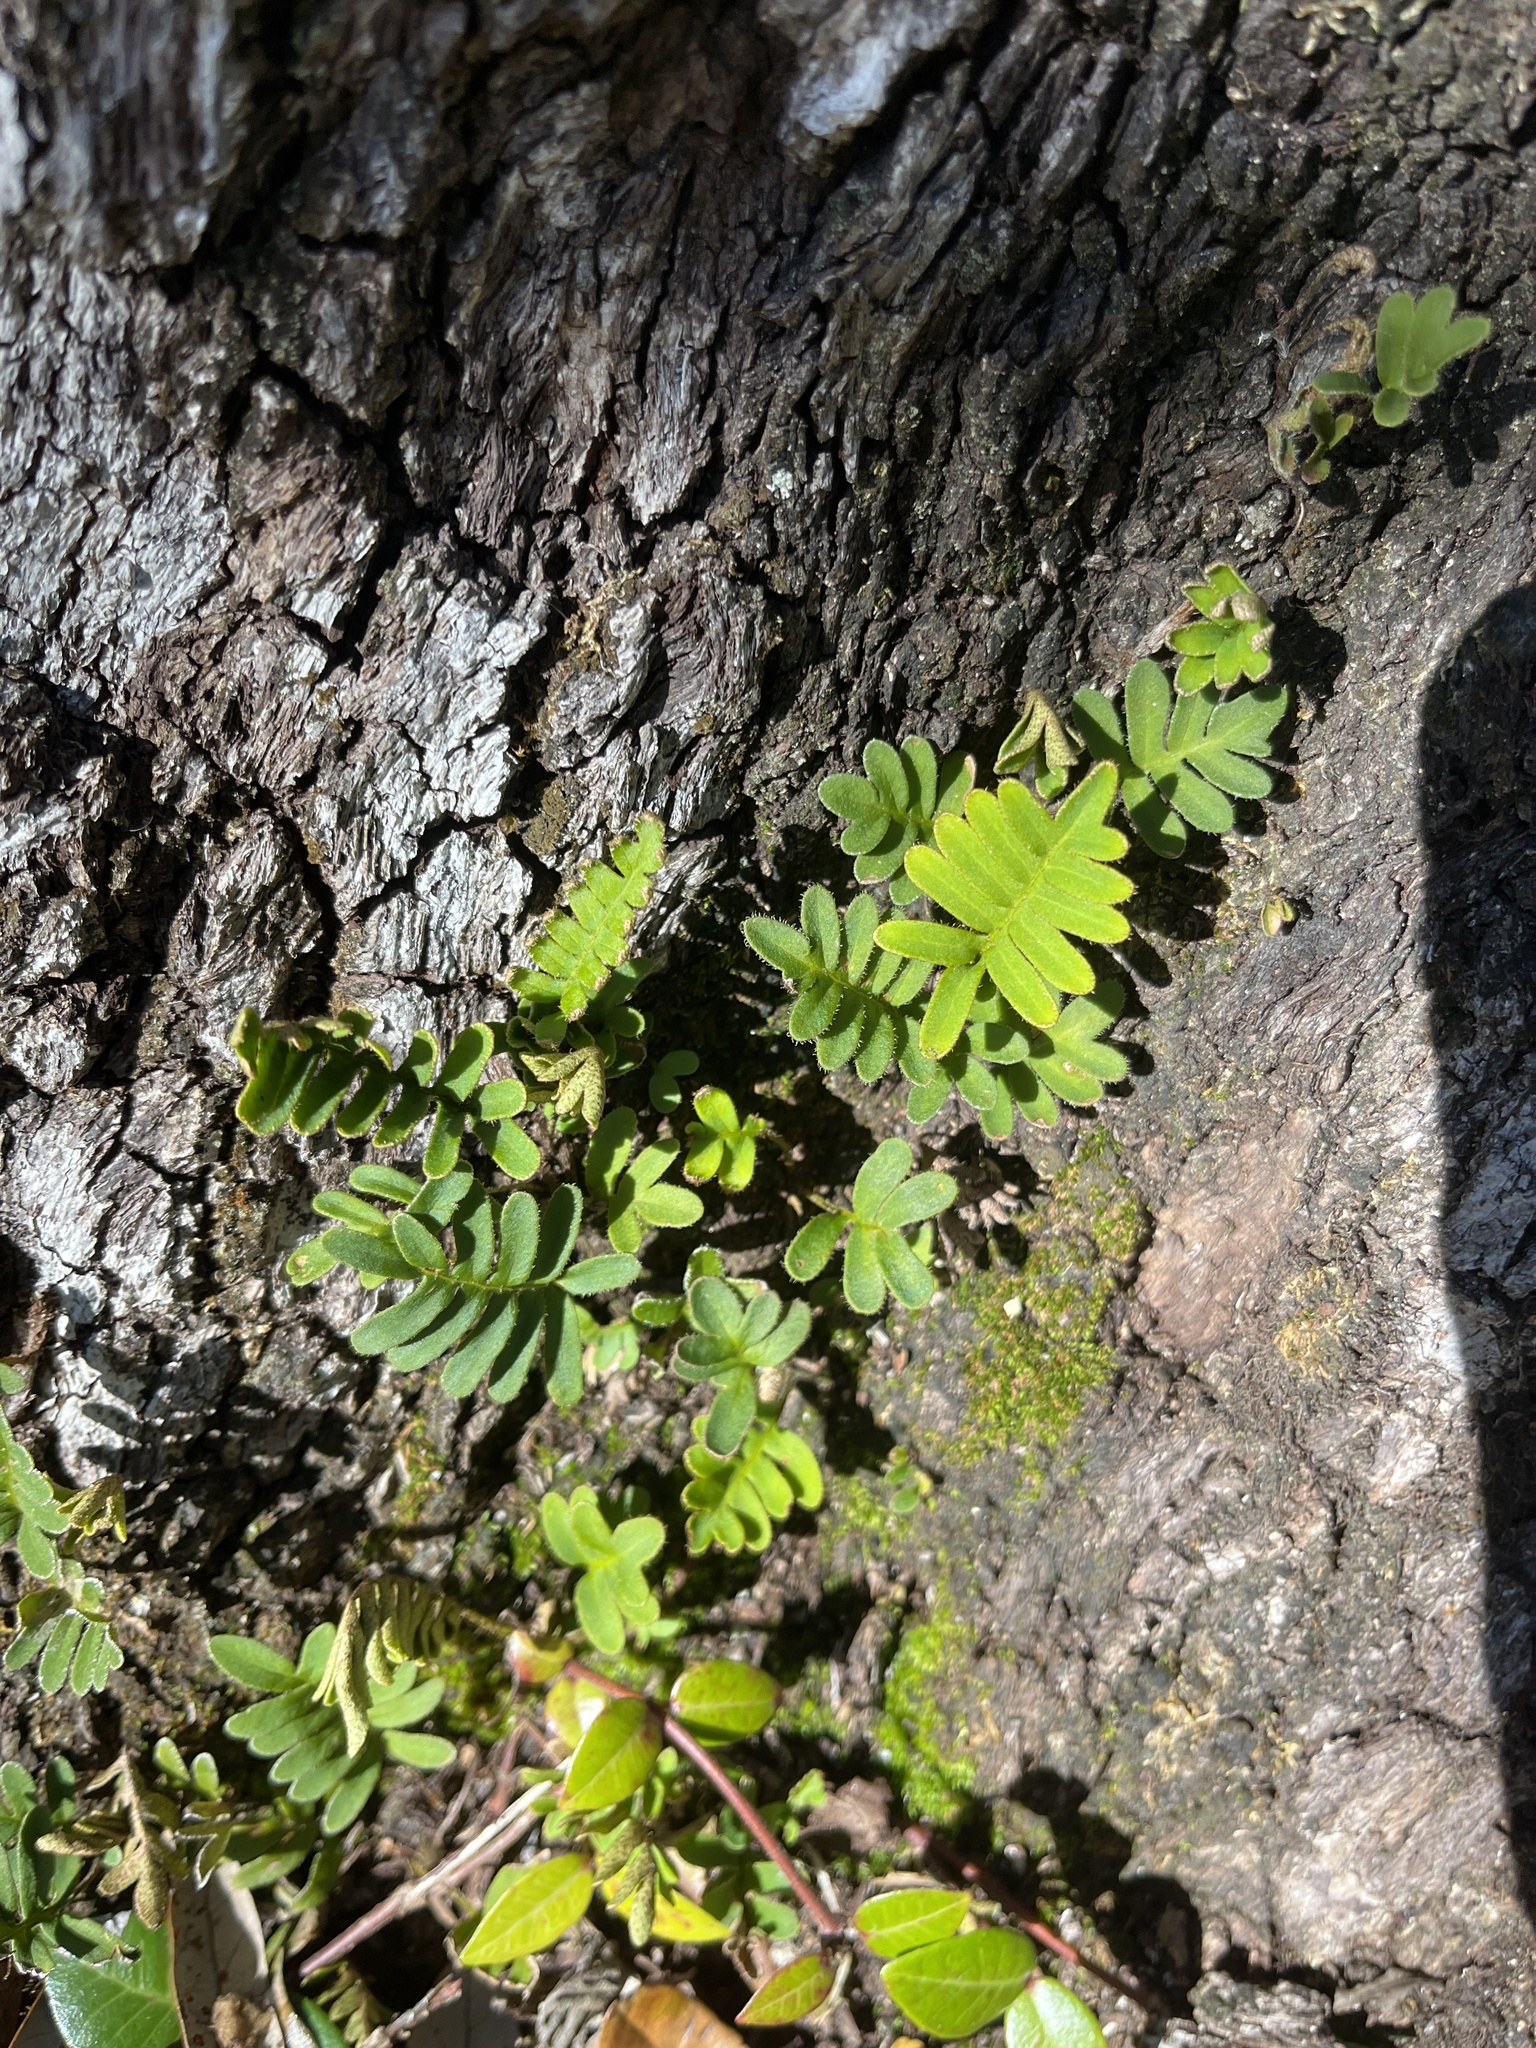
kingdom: Plantae
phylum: Tracheophyta
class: Polypodiopsida
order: Polypodiales
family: Polypodiaceae
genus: Pleopeltis
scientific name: Pleopeltis michauxiana
